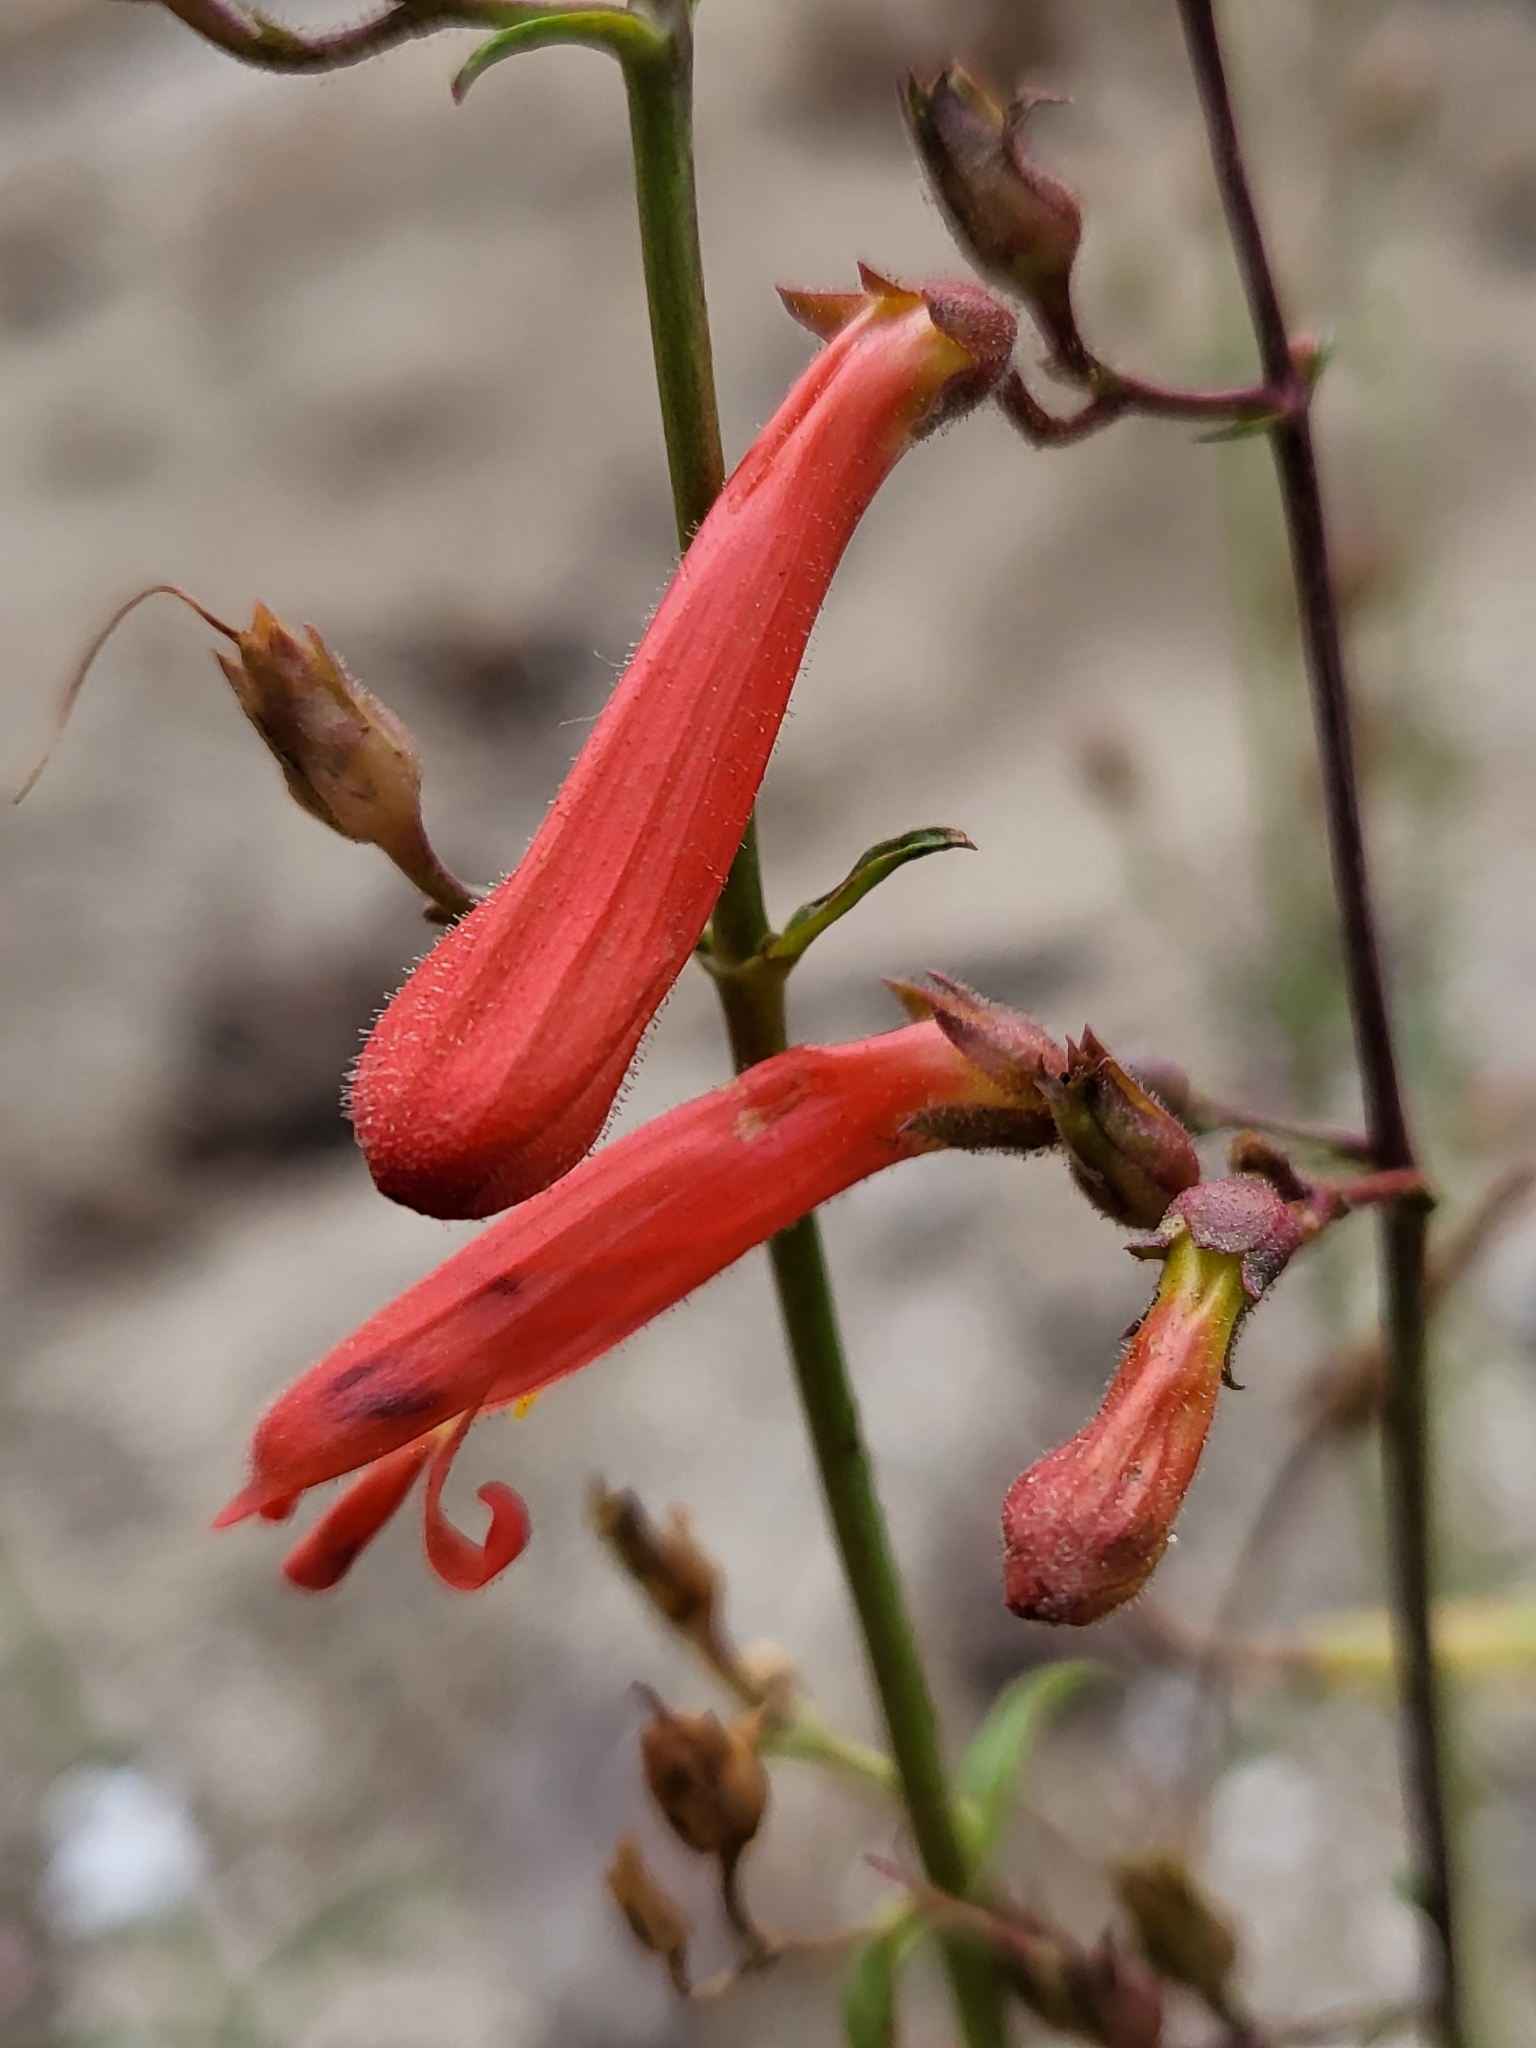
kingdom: Plantae
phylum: Tracheophyta
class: Magnoliopsida
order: Lamiales
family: Plantaginaceae
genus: Penstemon
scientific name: Penstemon rostriflorus
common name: Bridges's penstemon
